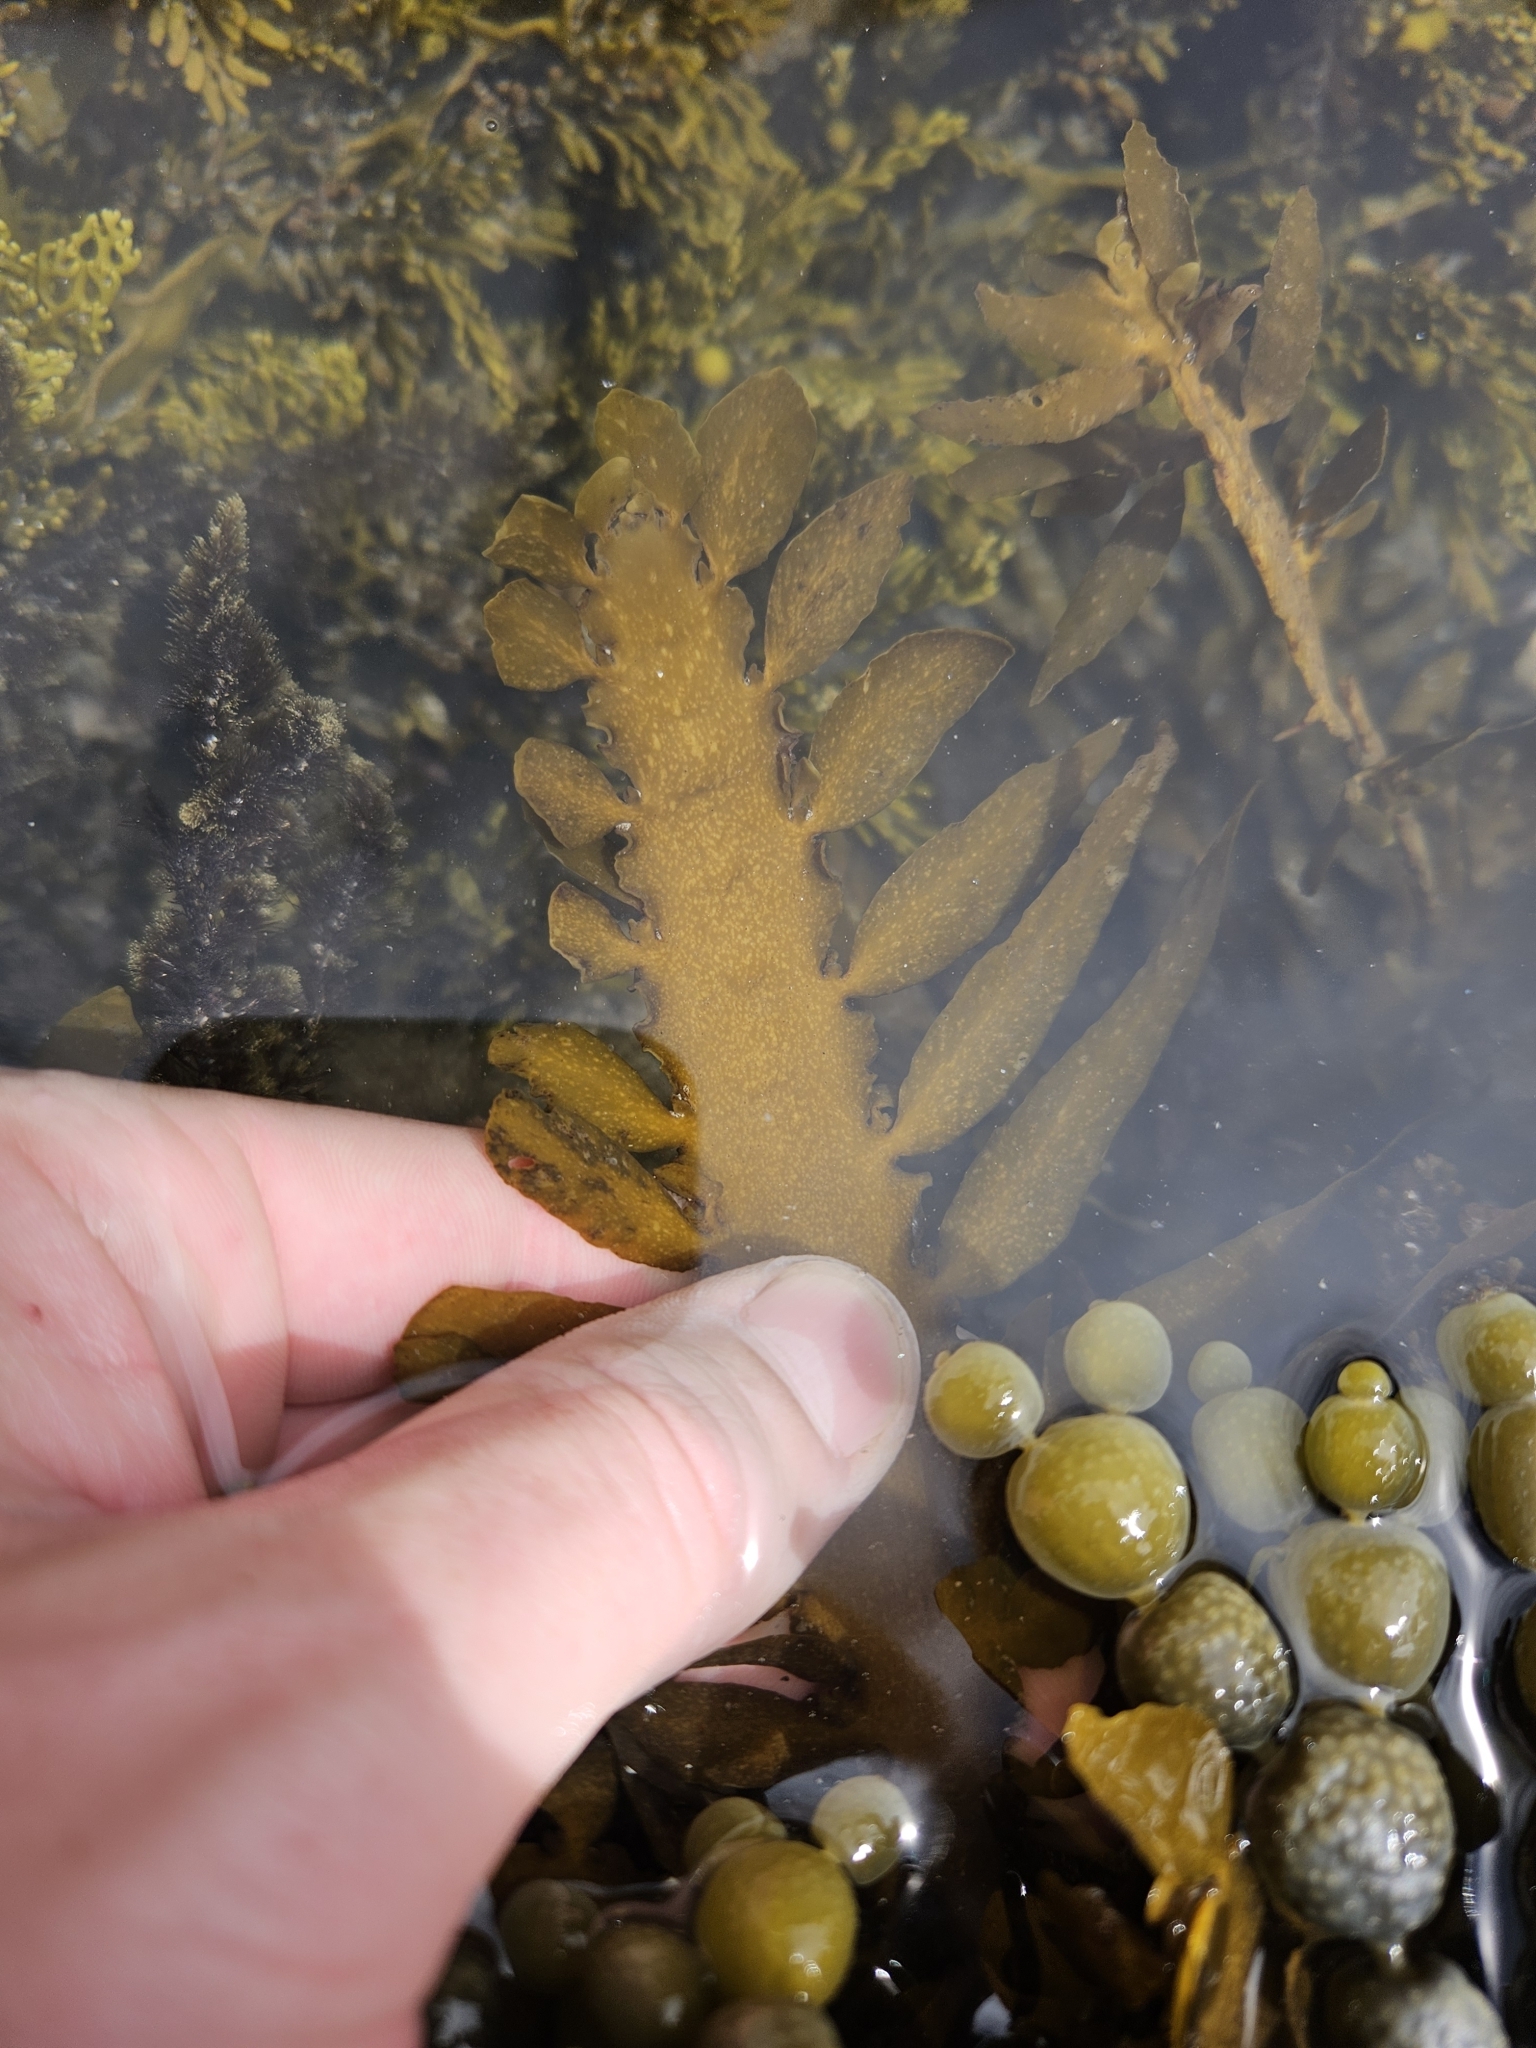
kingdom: Chromista
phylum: Ochrophyta
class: Phaeophyceae
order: Fucales
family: Sargassaceae
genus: Carpophyllum
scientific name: Carpophyllum maschalocarpum
